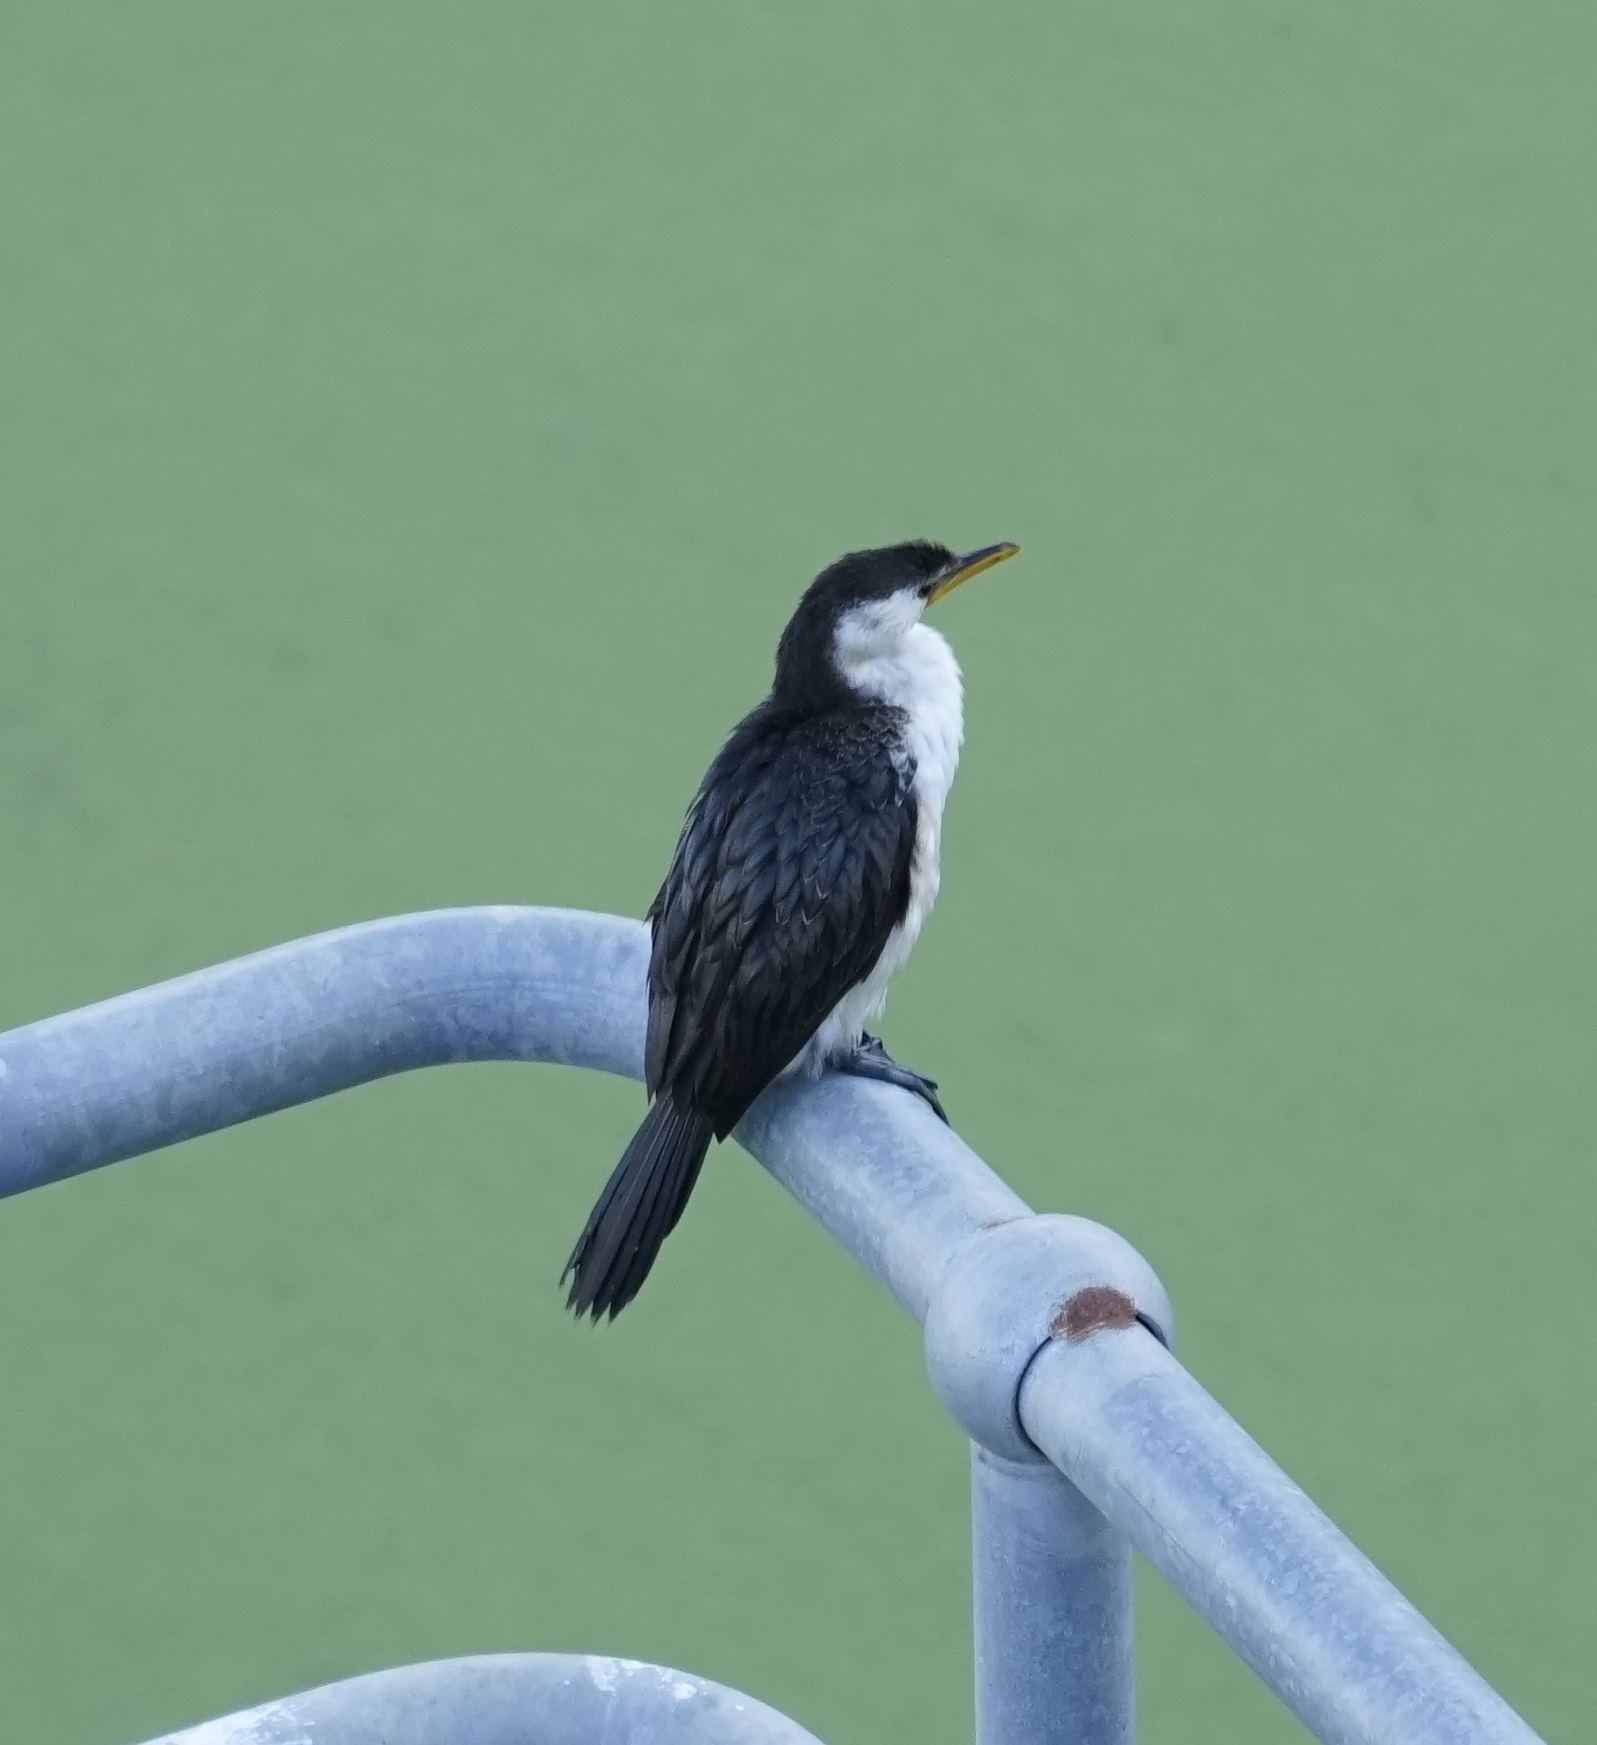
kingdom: Animalia
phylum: Chordata
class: Aves
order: Suliformes
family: Phalacrocoracidae
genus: Microcarbo
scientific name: Microcarbo melanoleucos
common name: Little pied cormorant
